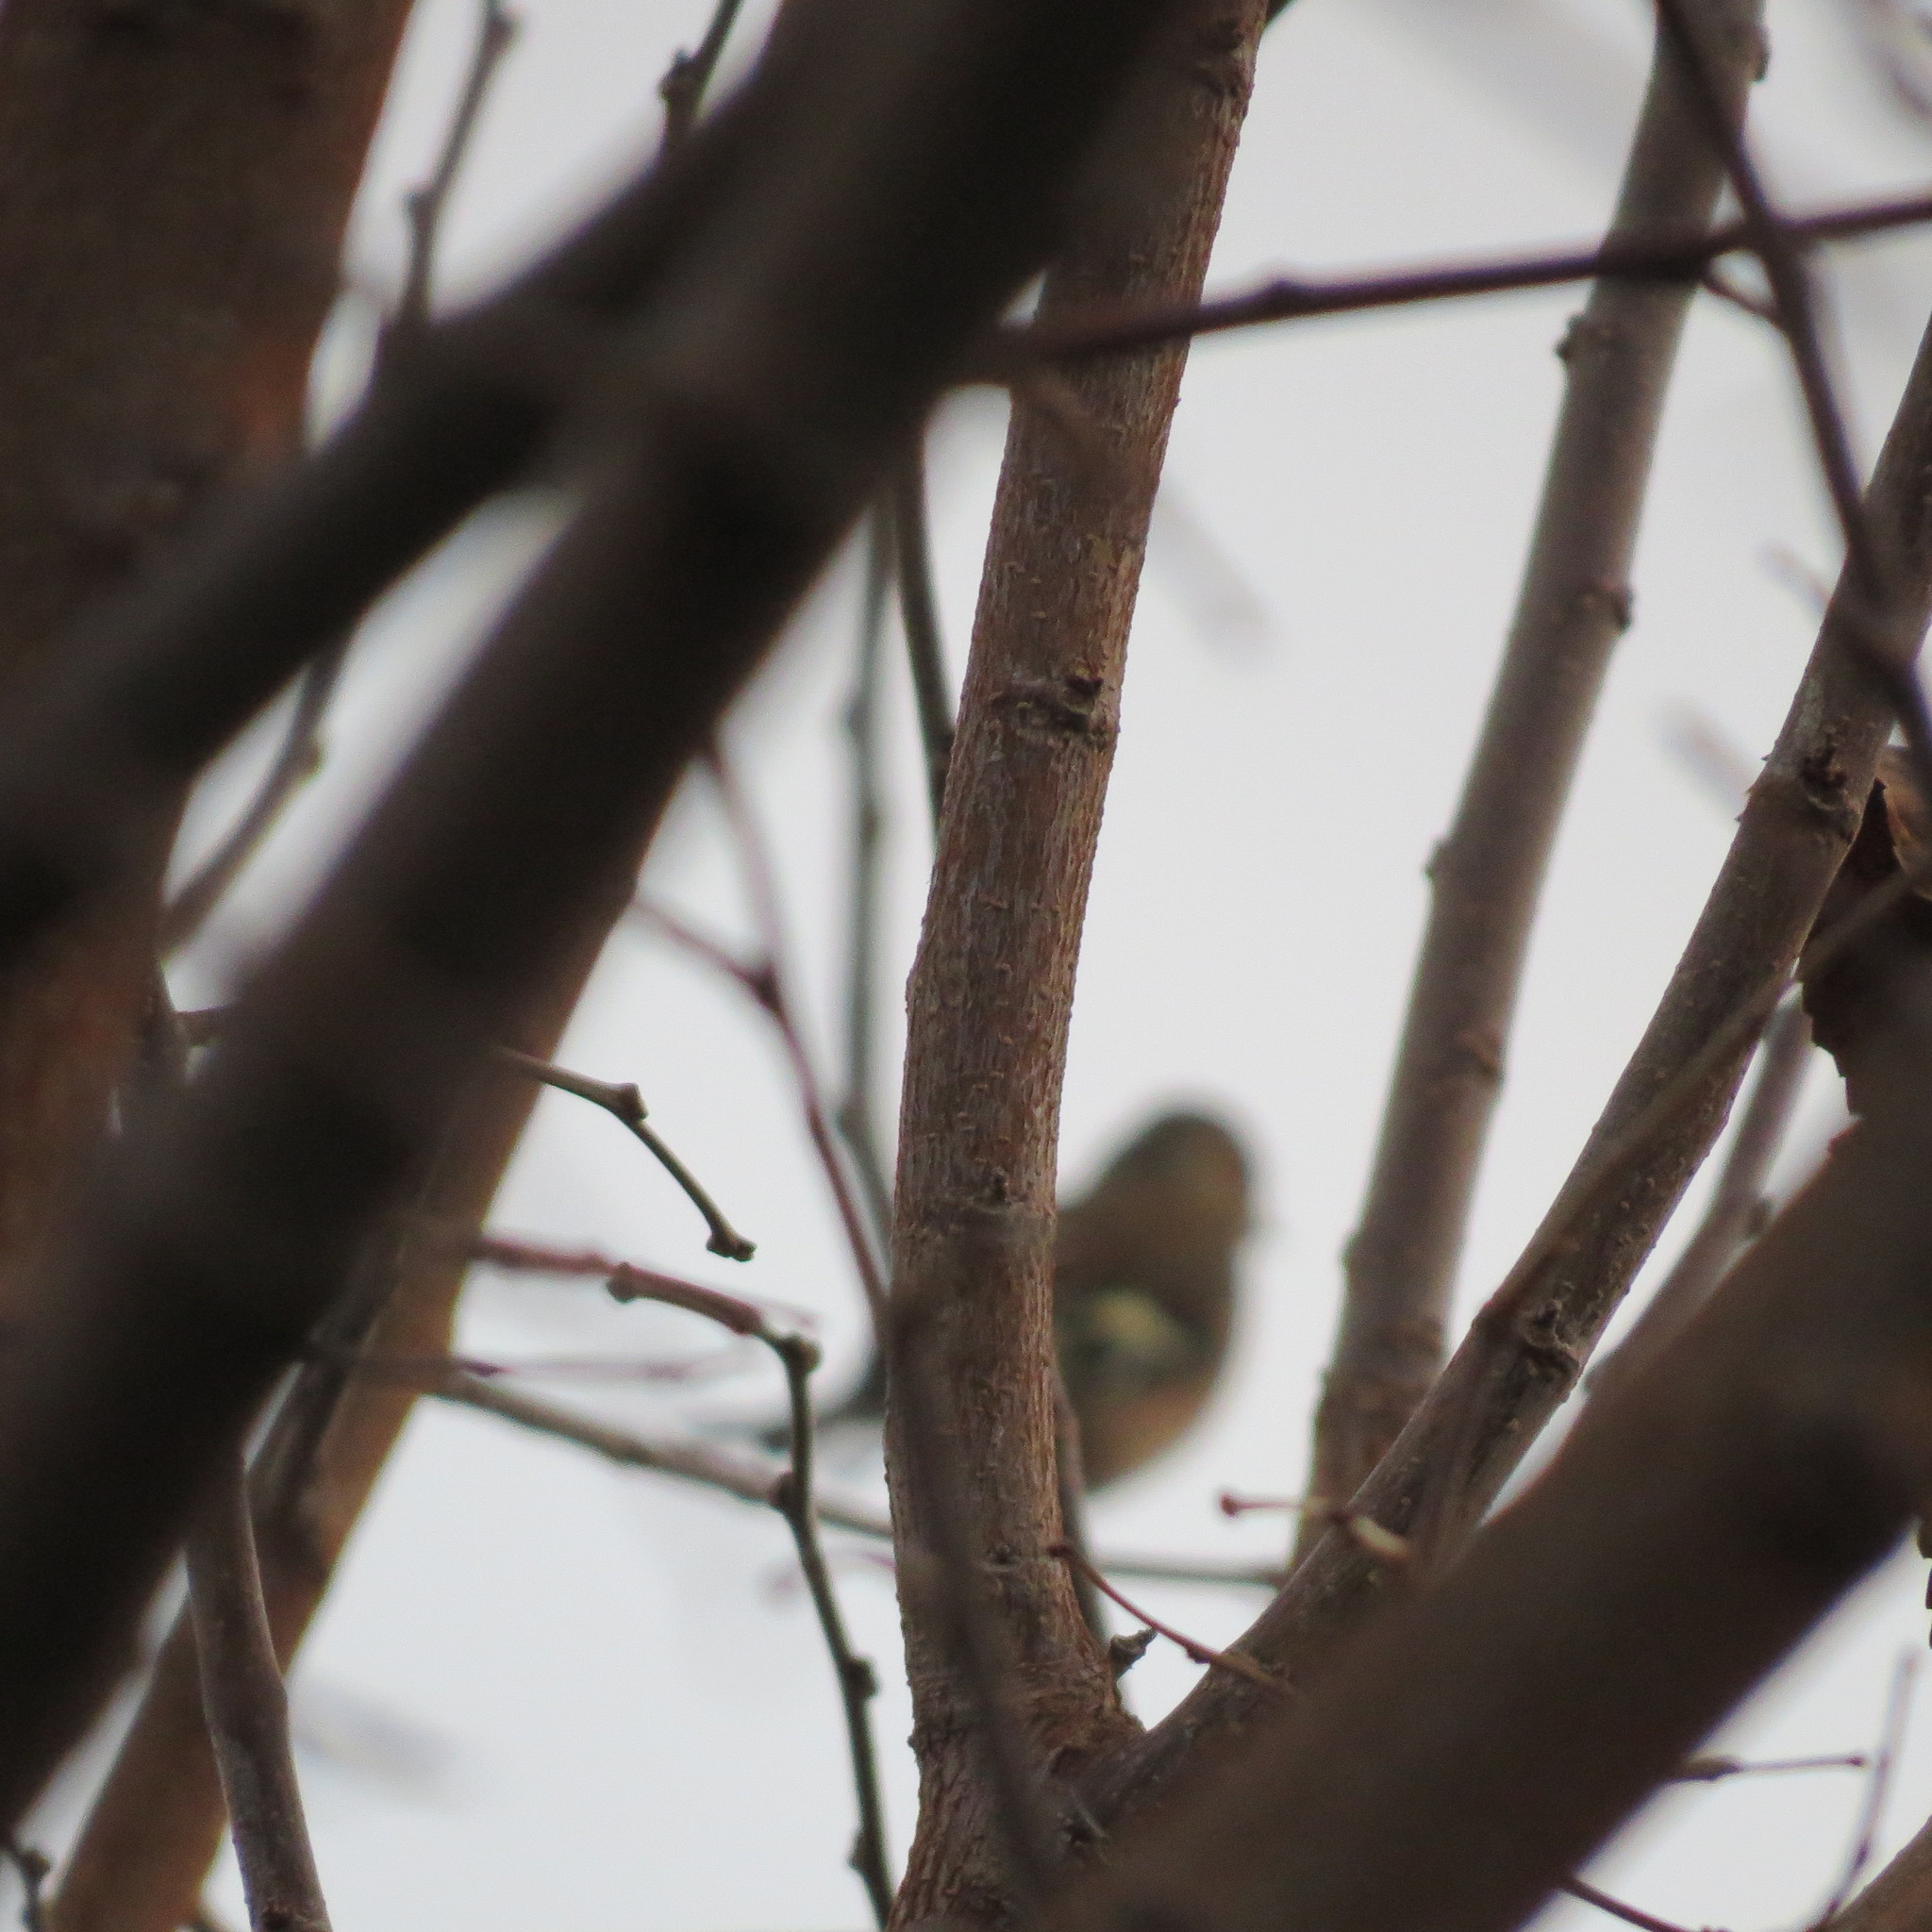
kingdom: Animalia
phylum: Chordata
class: Aves
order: Passeriformes
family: Fringillidae
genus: Fringilla
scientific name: Fringilla coelebs
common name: Common chaffinch
